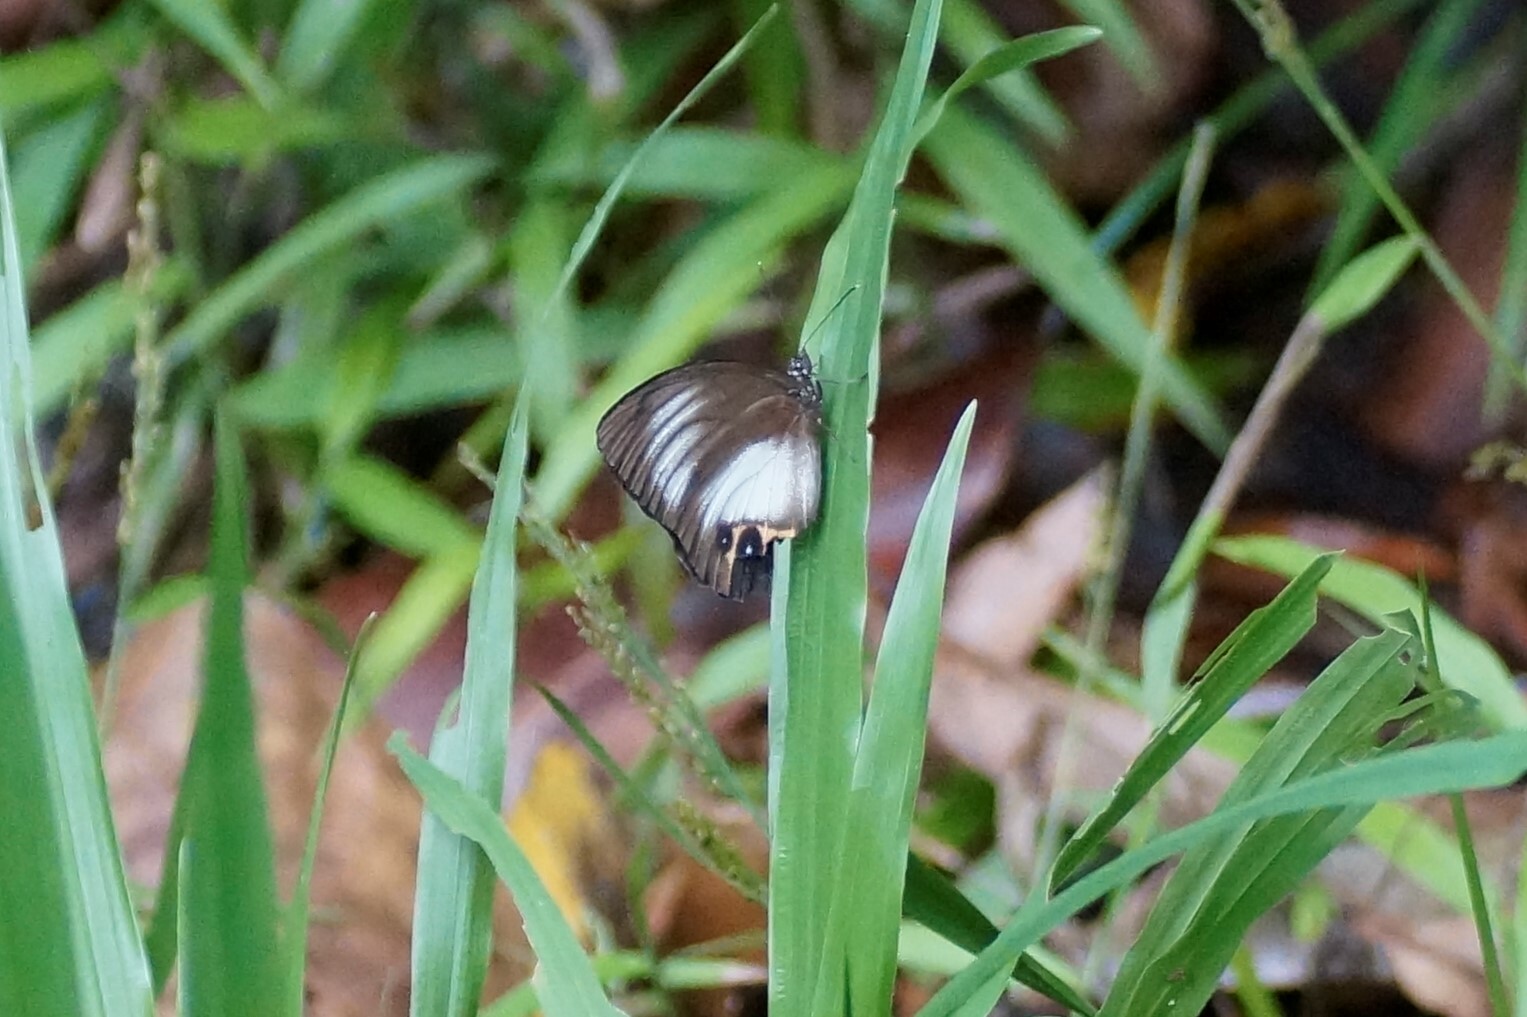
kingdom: Animalia
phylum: Arthropoda
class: Insecta
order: Lepidoptera
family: Nymphalidae
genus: Elymnias
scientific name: Elymnias agondas
